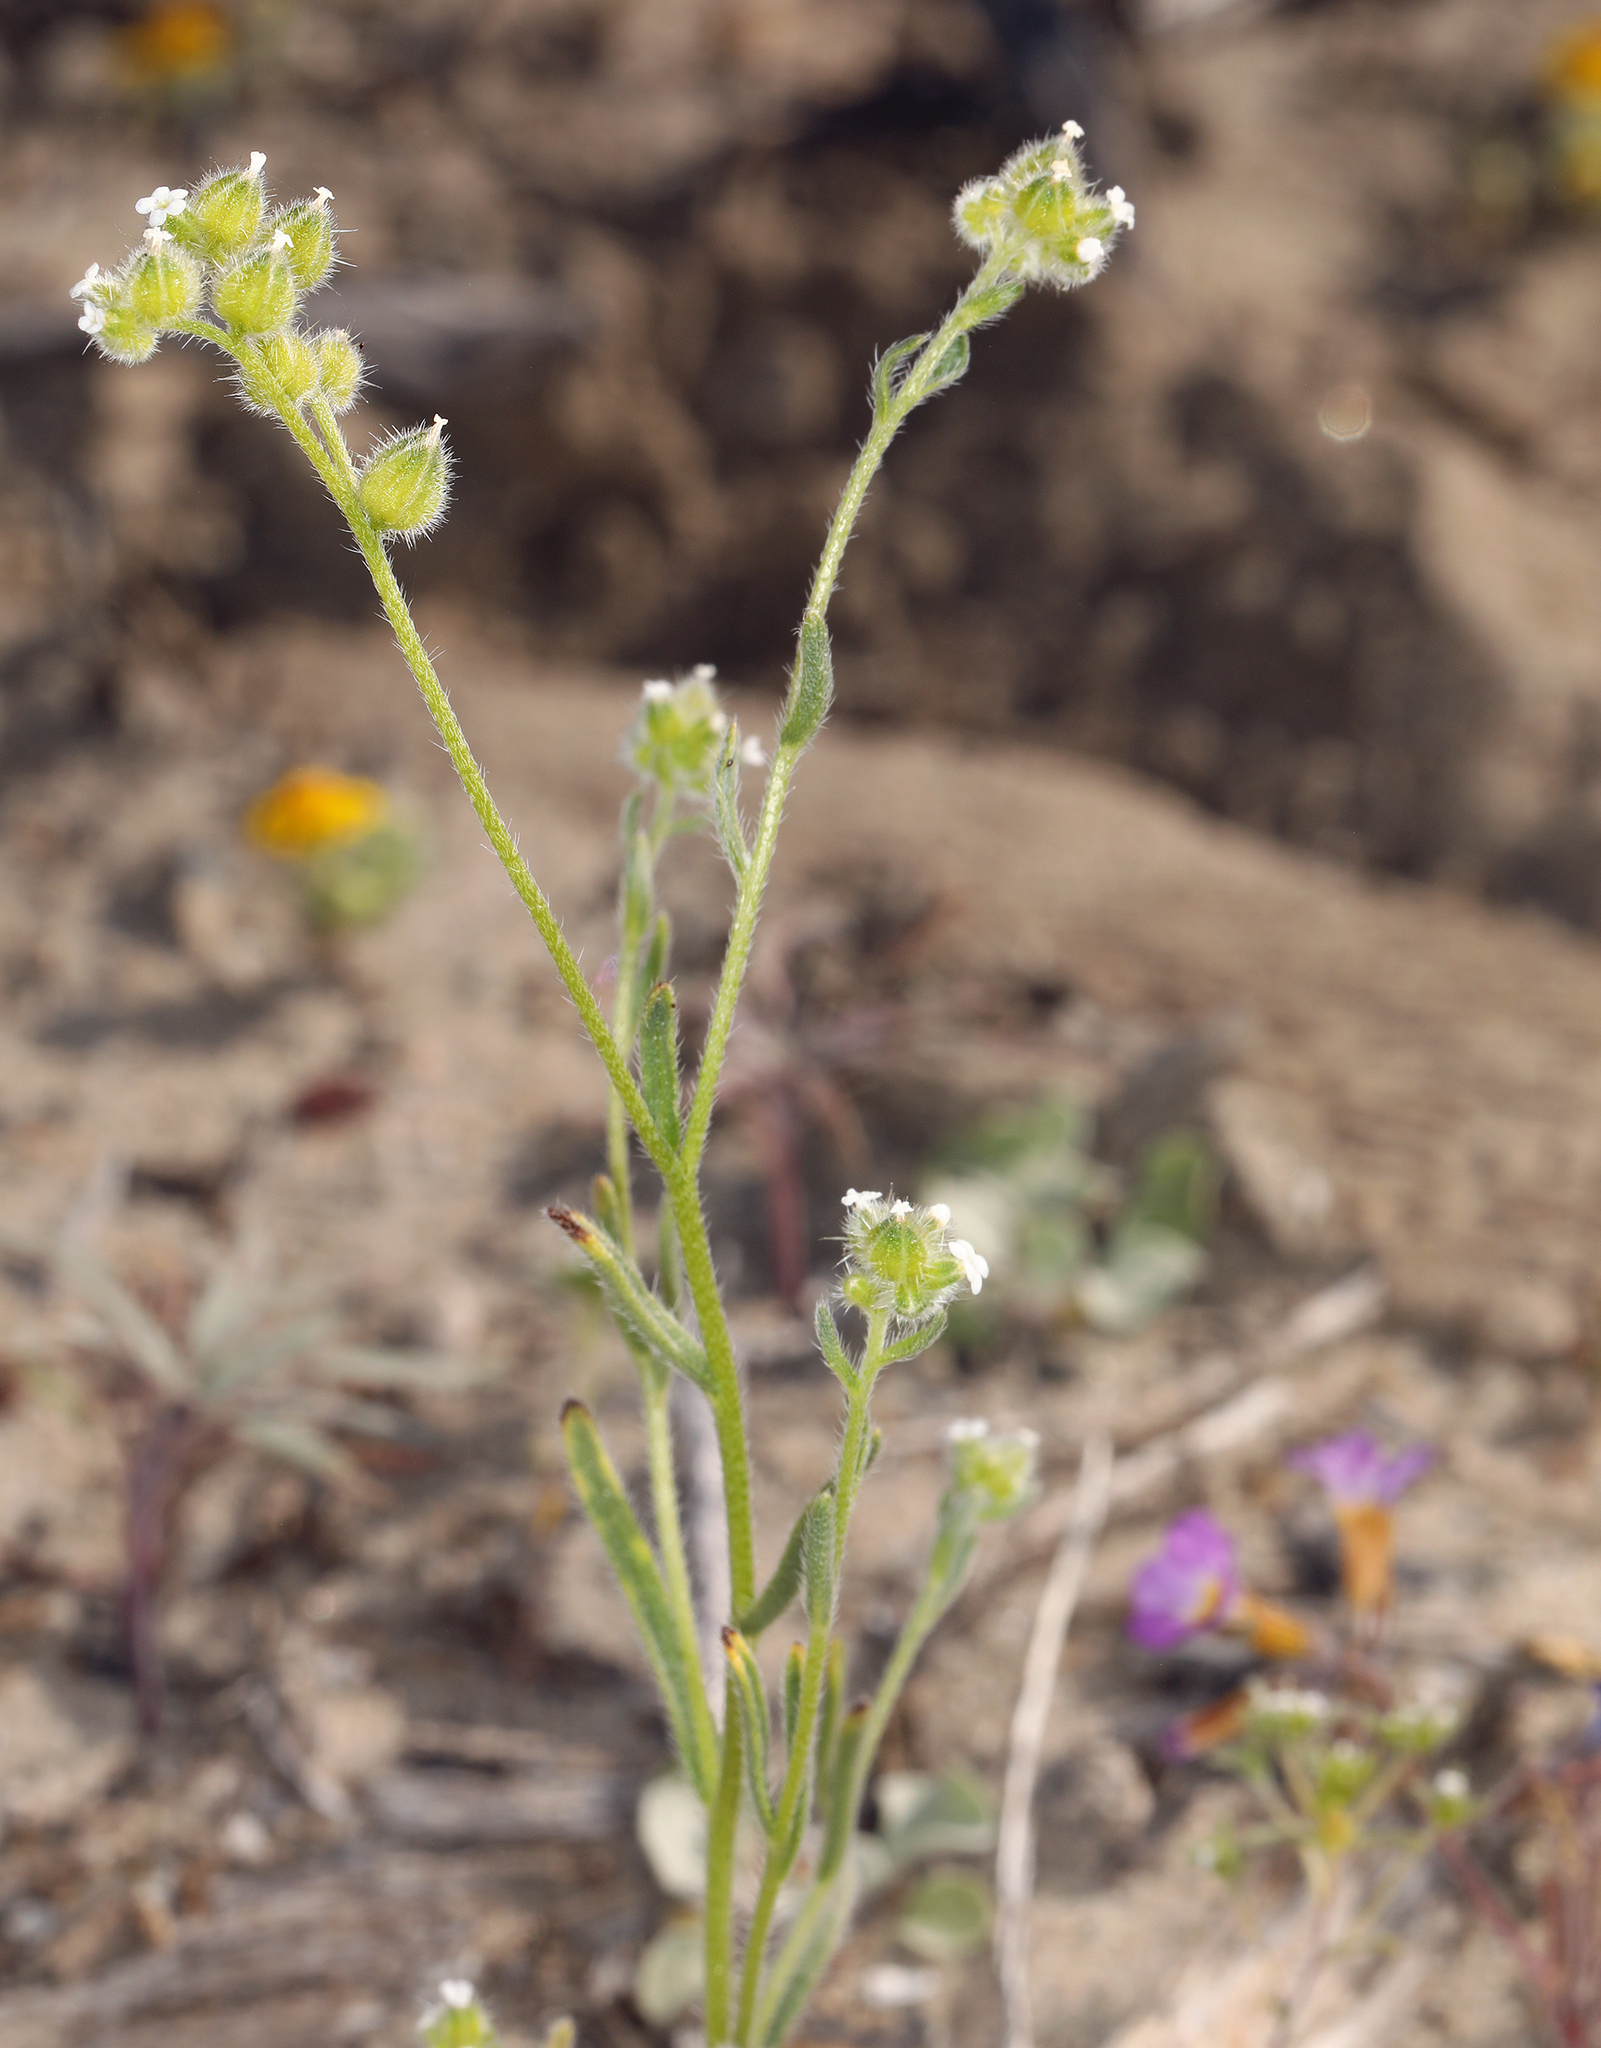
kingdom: Plantae
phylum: Tracheophyta
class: Magnoliopsida
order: Boraginales
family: Boraginaceae
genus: Cryptantha
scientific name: Cryptantha pterocarya
